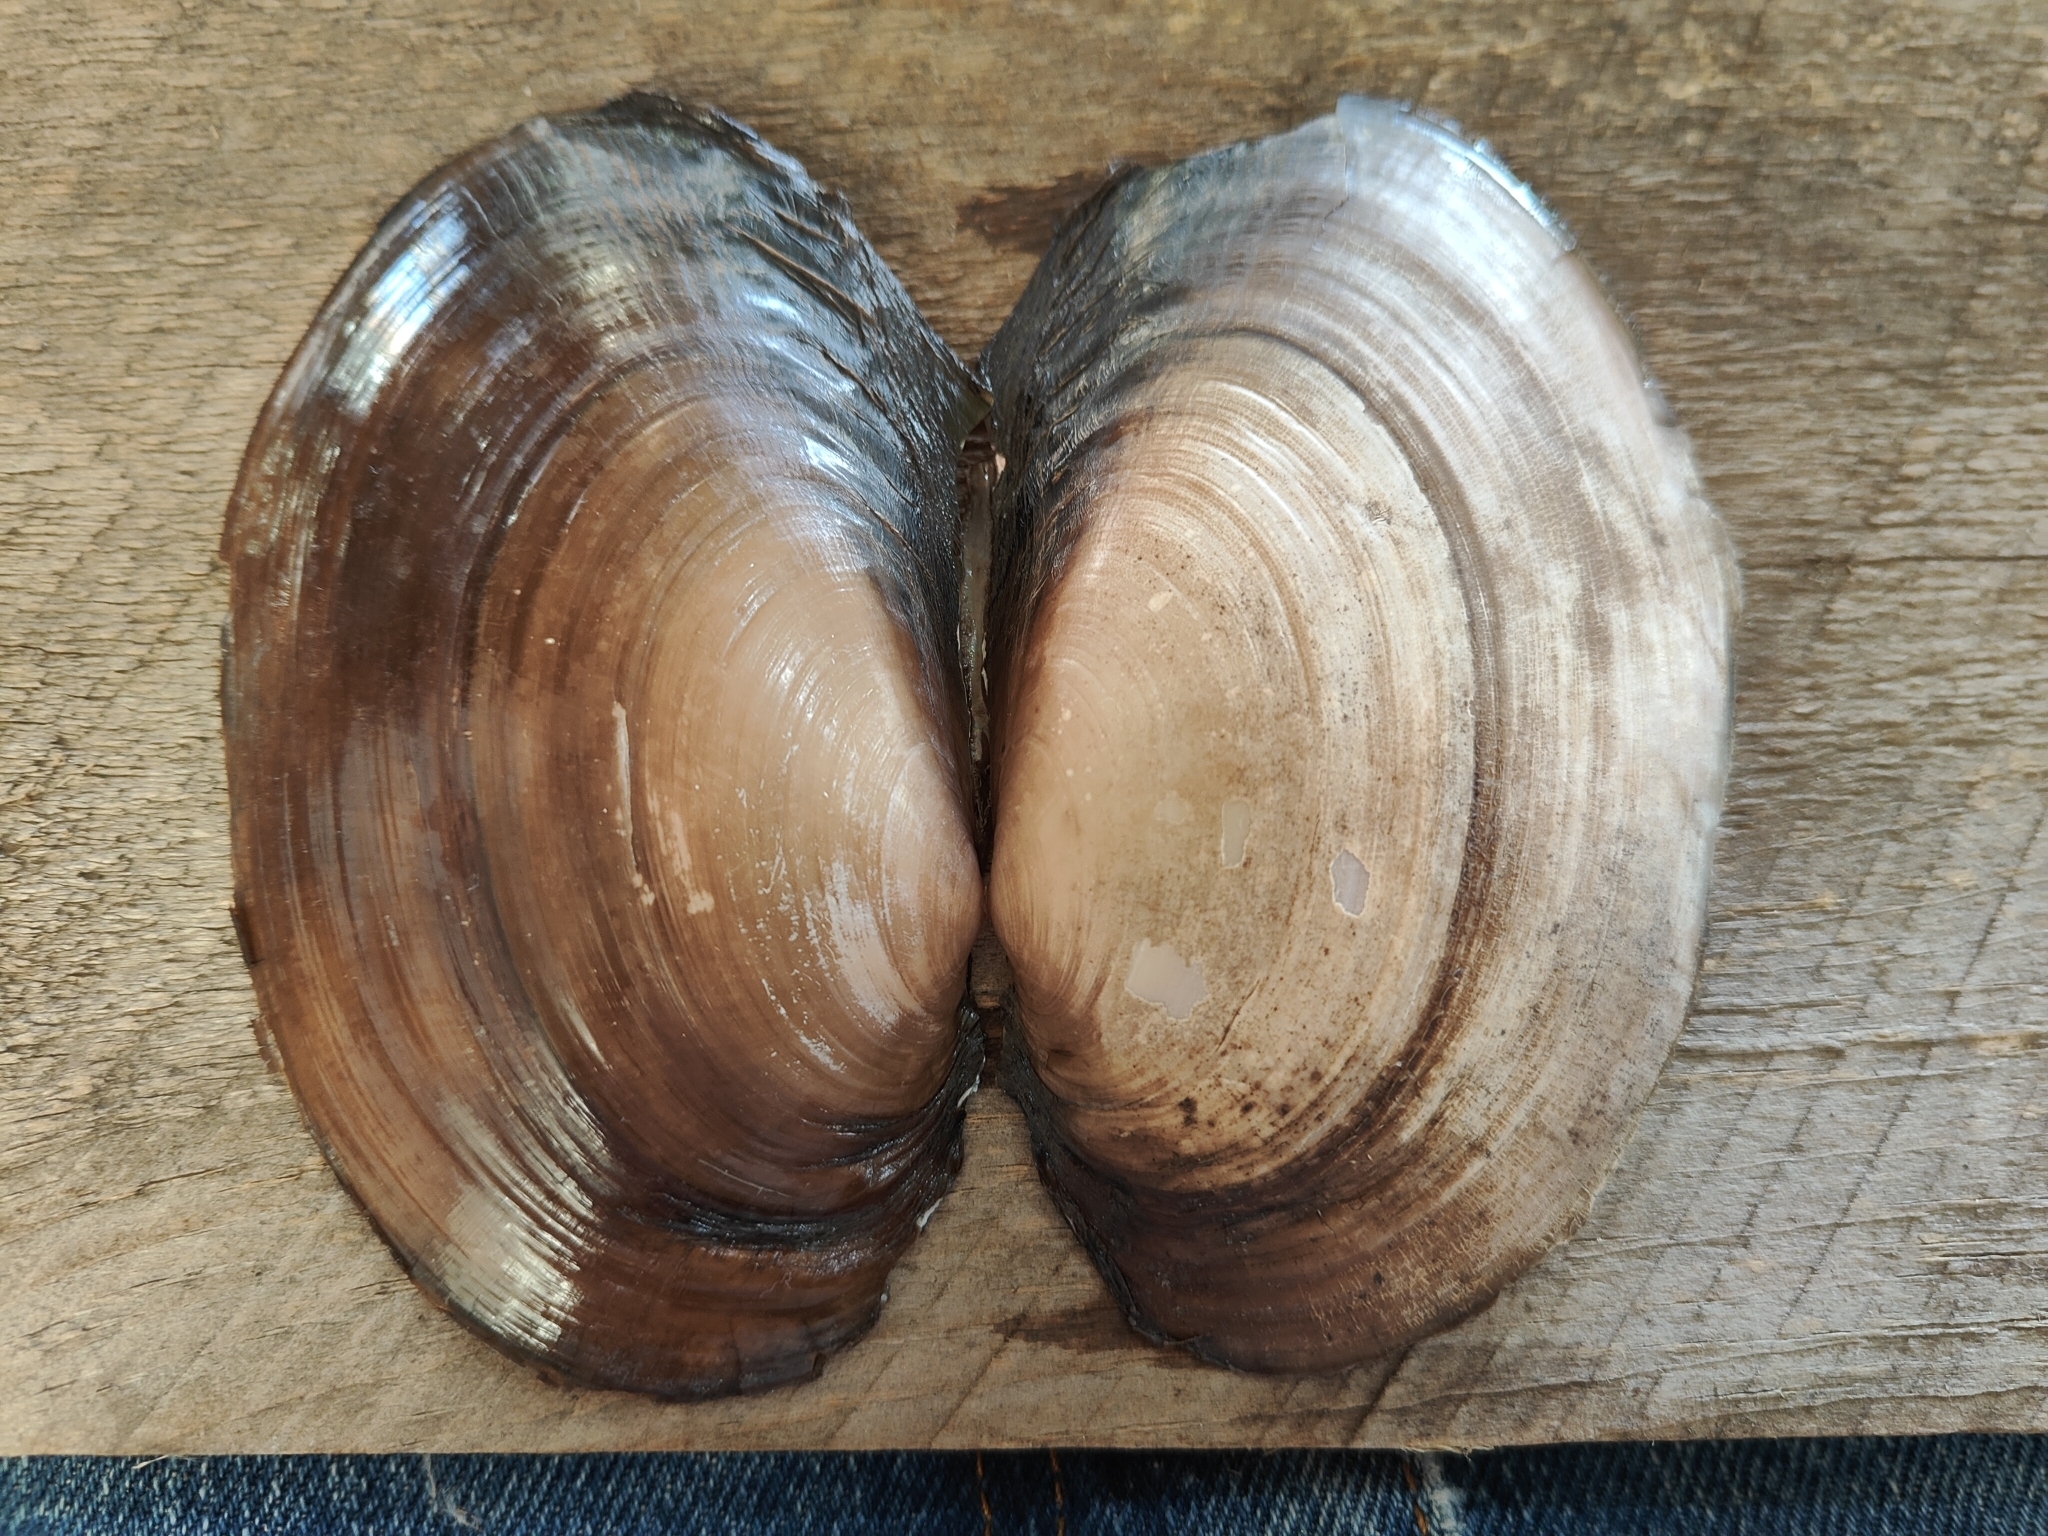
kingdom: Animalia
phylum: Mollusca
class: Bivalvia
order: Unionida
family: Unionidae
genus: Potamilus
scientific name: Potamilus ohiensis
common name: Pink papershell
